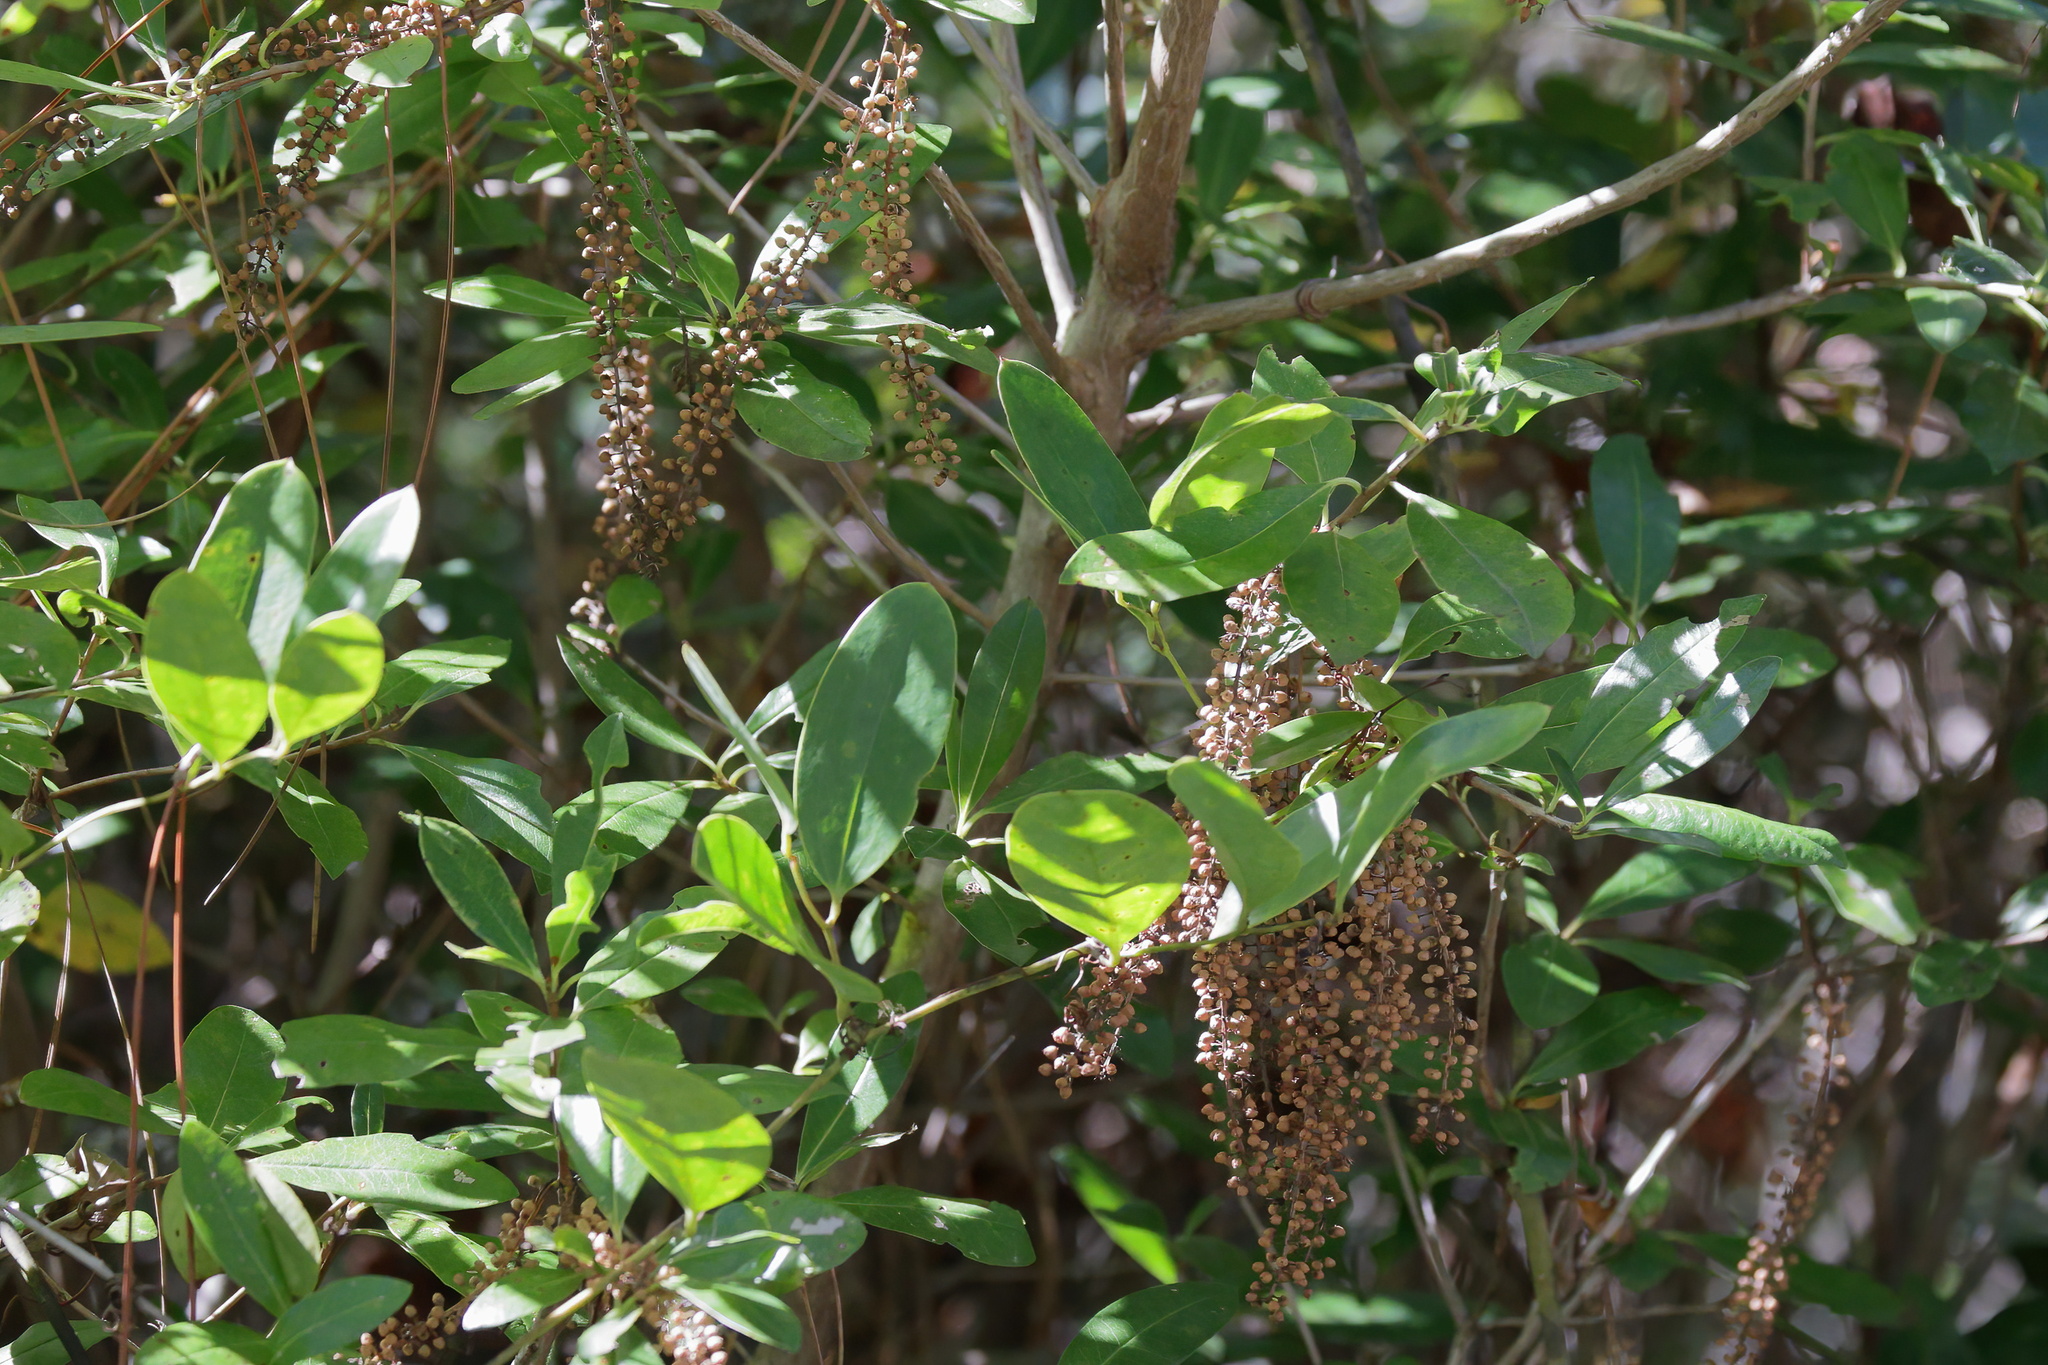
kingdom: Plantae
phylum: Tracheophyta
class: Magnoliopsida
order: Ericales
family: Cyrillaceae
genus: Cyrilla
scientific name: Cyrilla racemiflora
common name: Black titi
